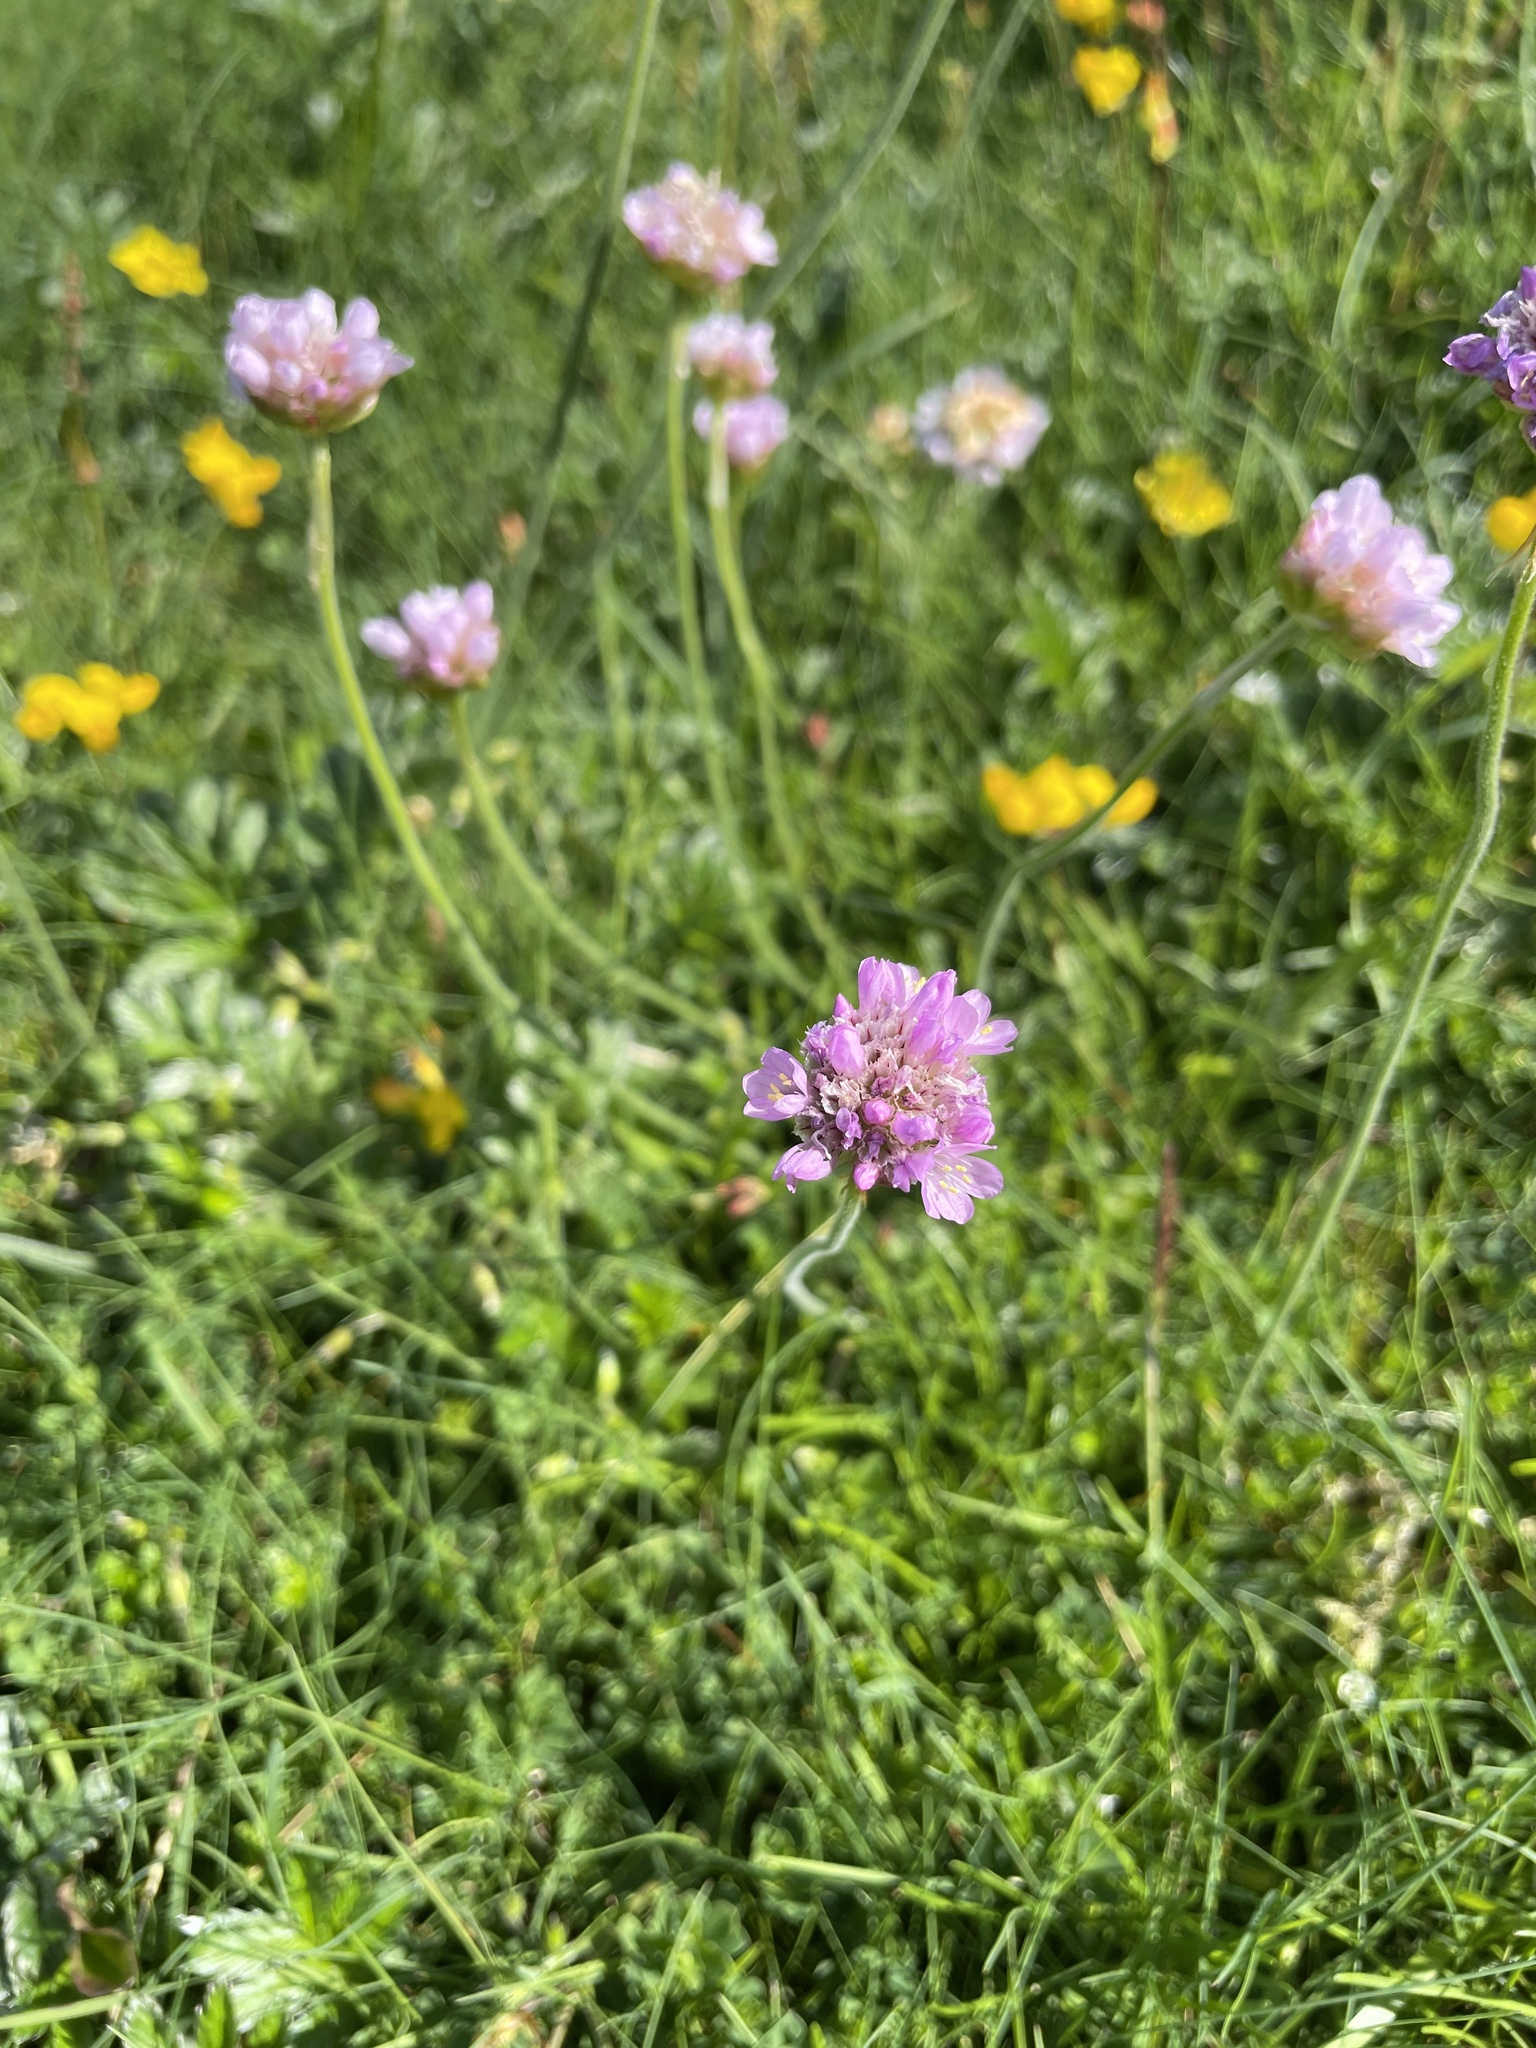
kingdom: Plantae
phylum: Tracheophyta
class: Magnoliopsida
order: Caryophyllales
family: Plumbaginaceae
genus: Armeria
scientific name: Armeria maritima
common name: Thrift
